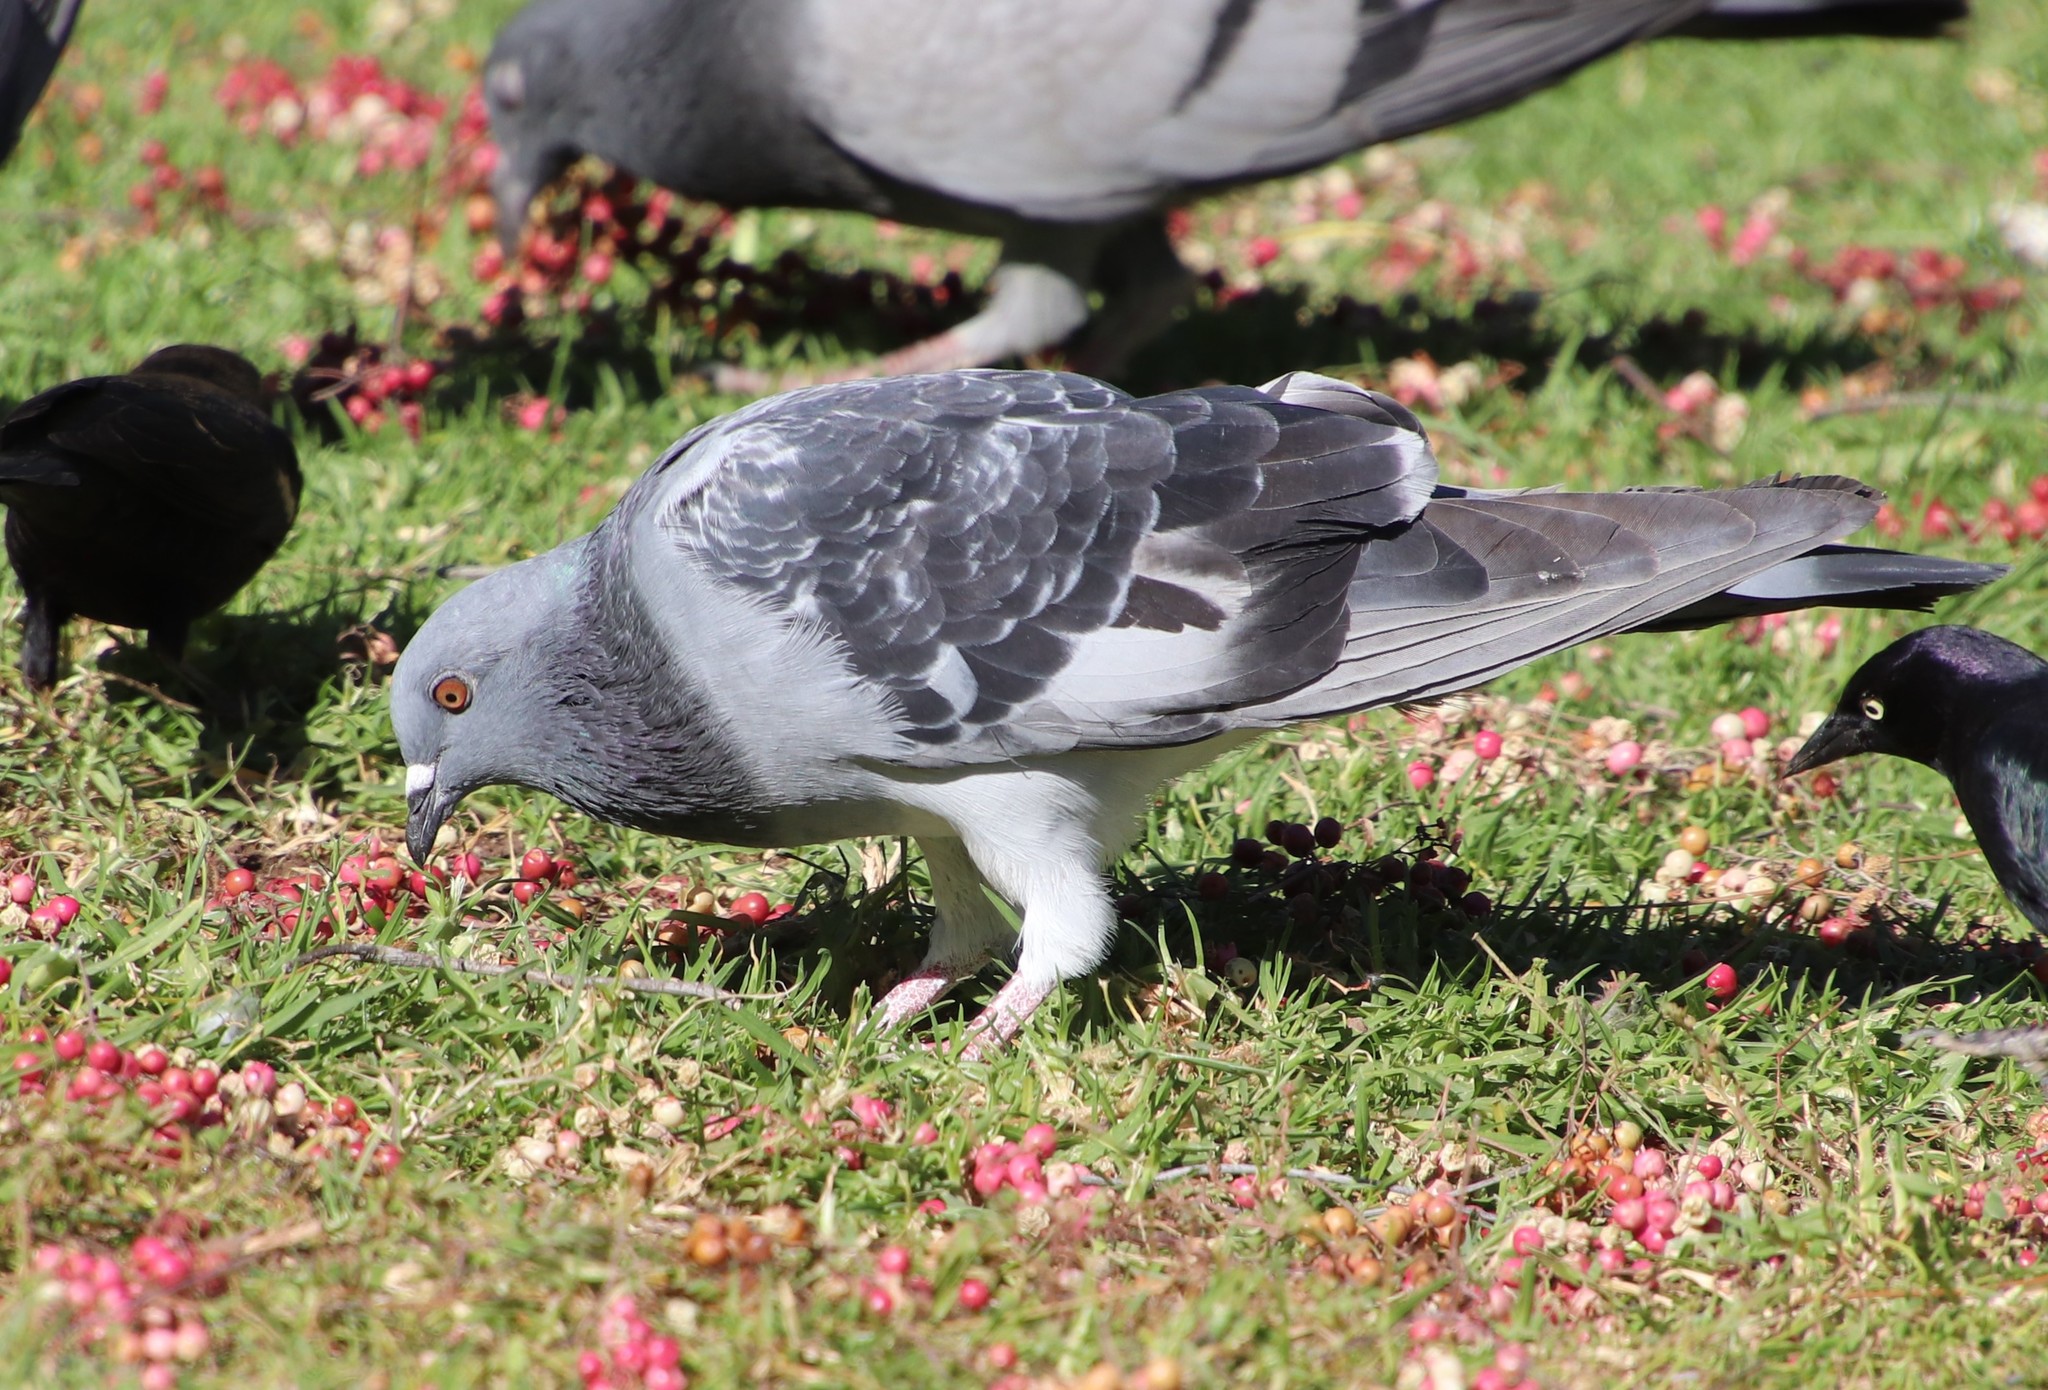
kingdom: Animalia
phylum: Chordata
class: Aves
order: Columbiformes
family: Columbidae
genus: Columba
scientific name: Columba livia
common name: Rock pigeon
